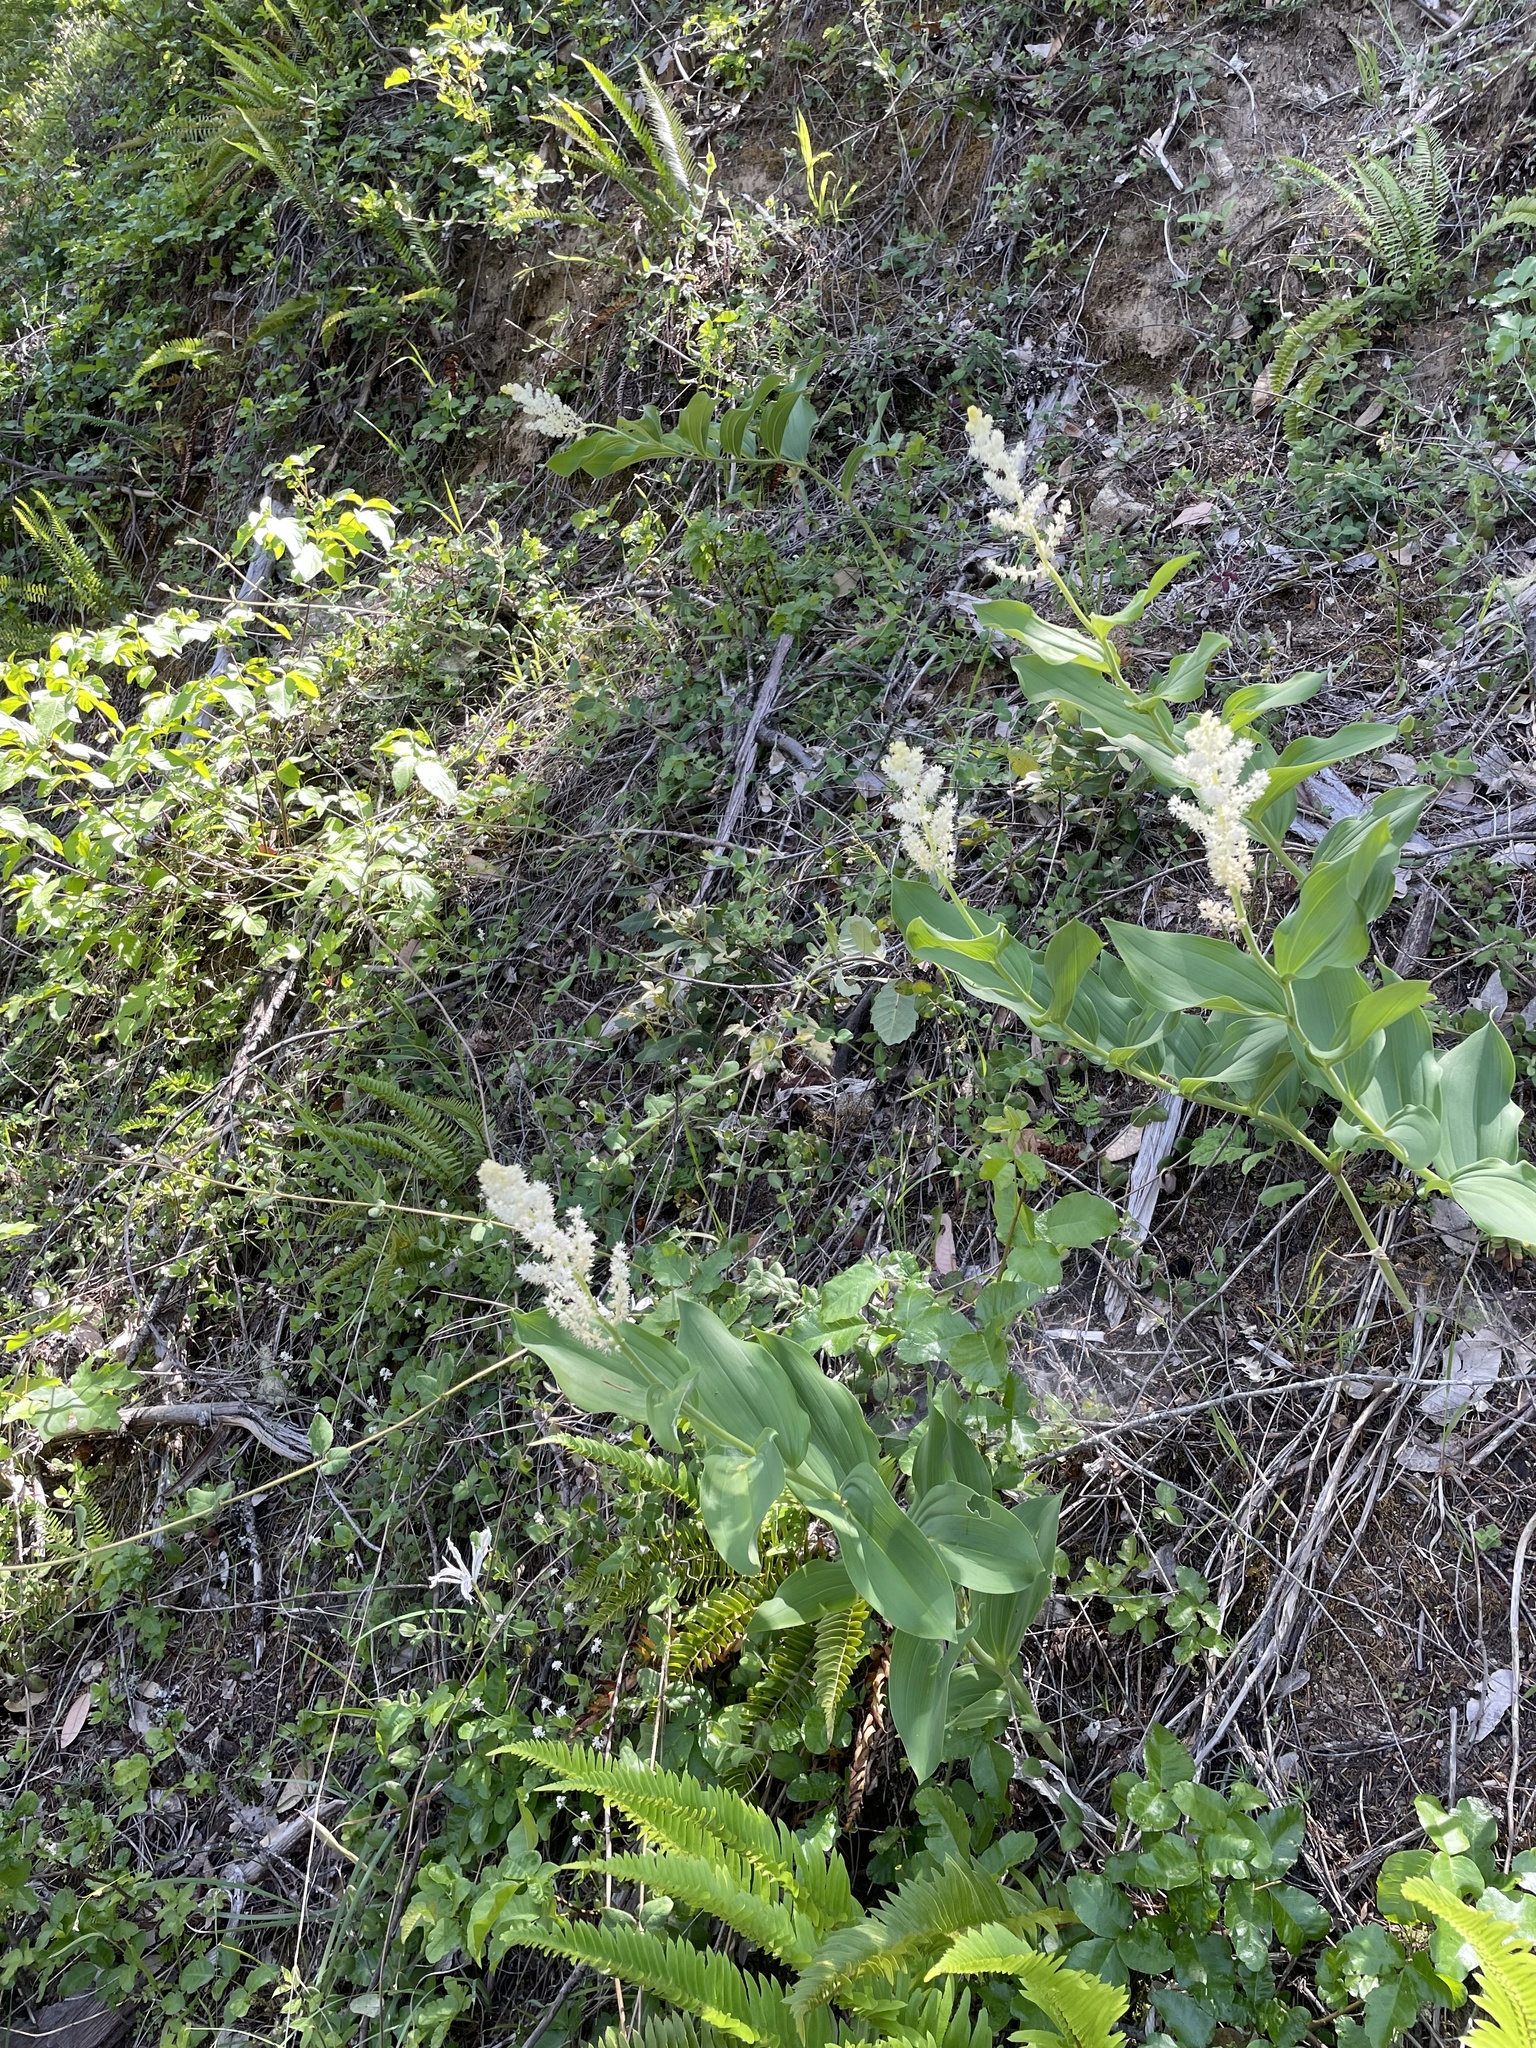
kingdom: Plantae
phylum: Tracheophyta
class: Liliopsida
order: Asparagales
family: Asparagaceae
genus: Maianthemum
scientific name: Maianthemum racemosum
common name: False spikenard
